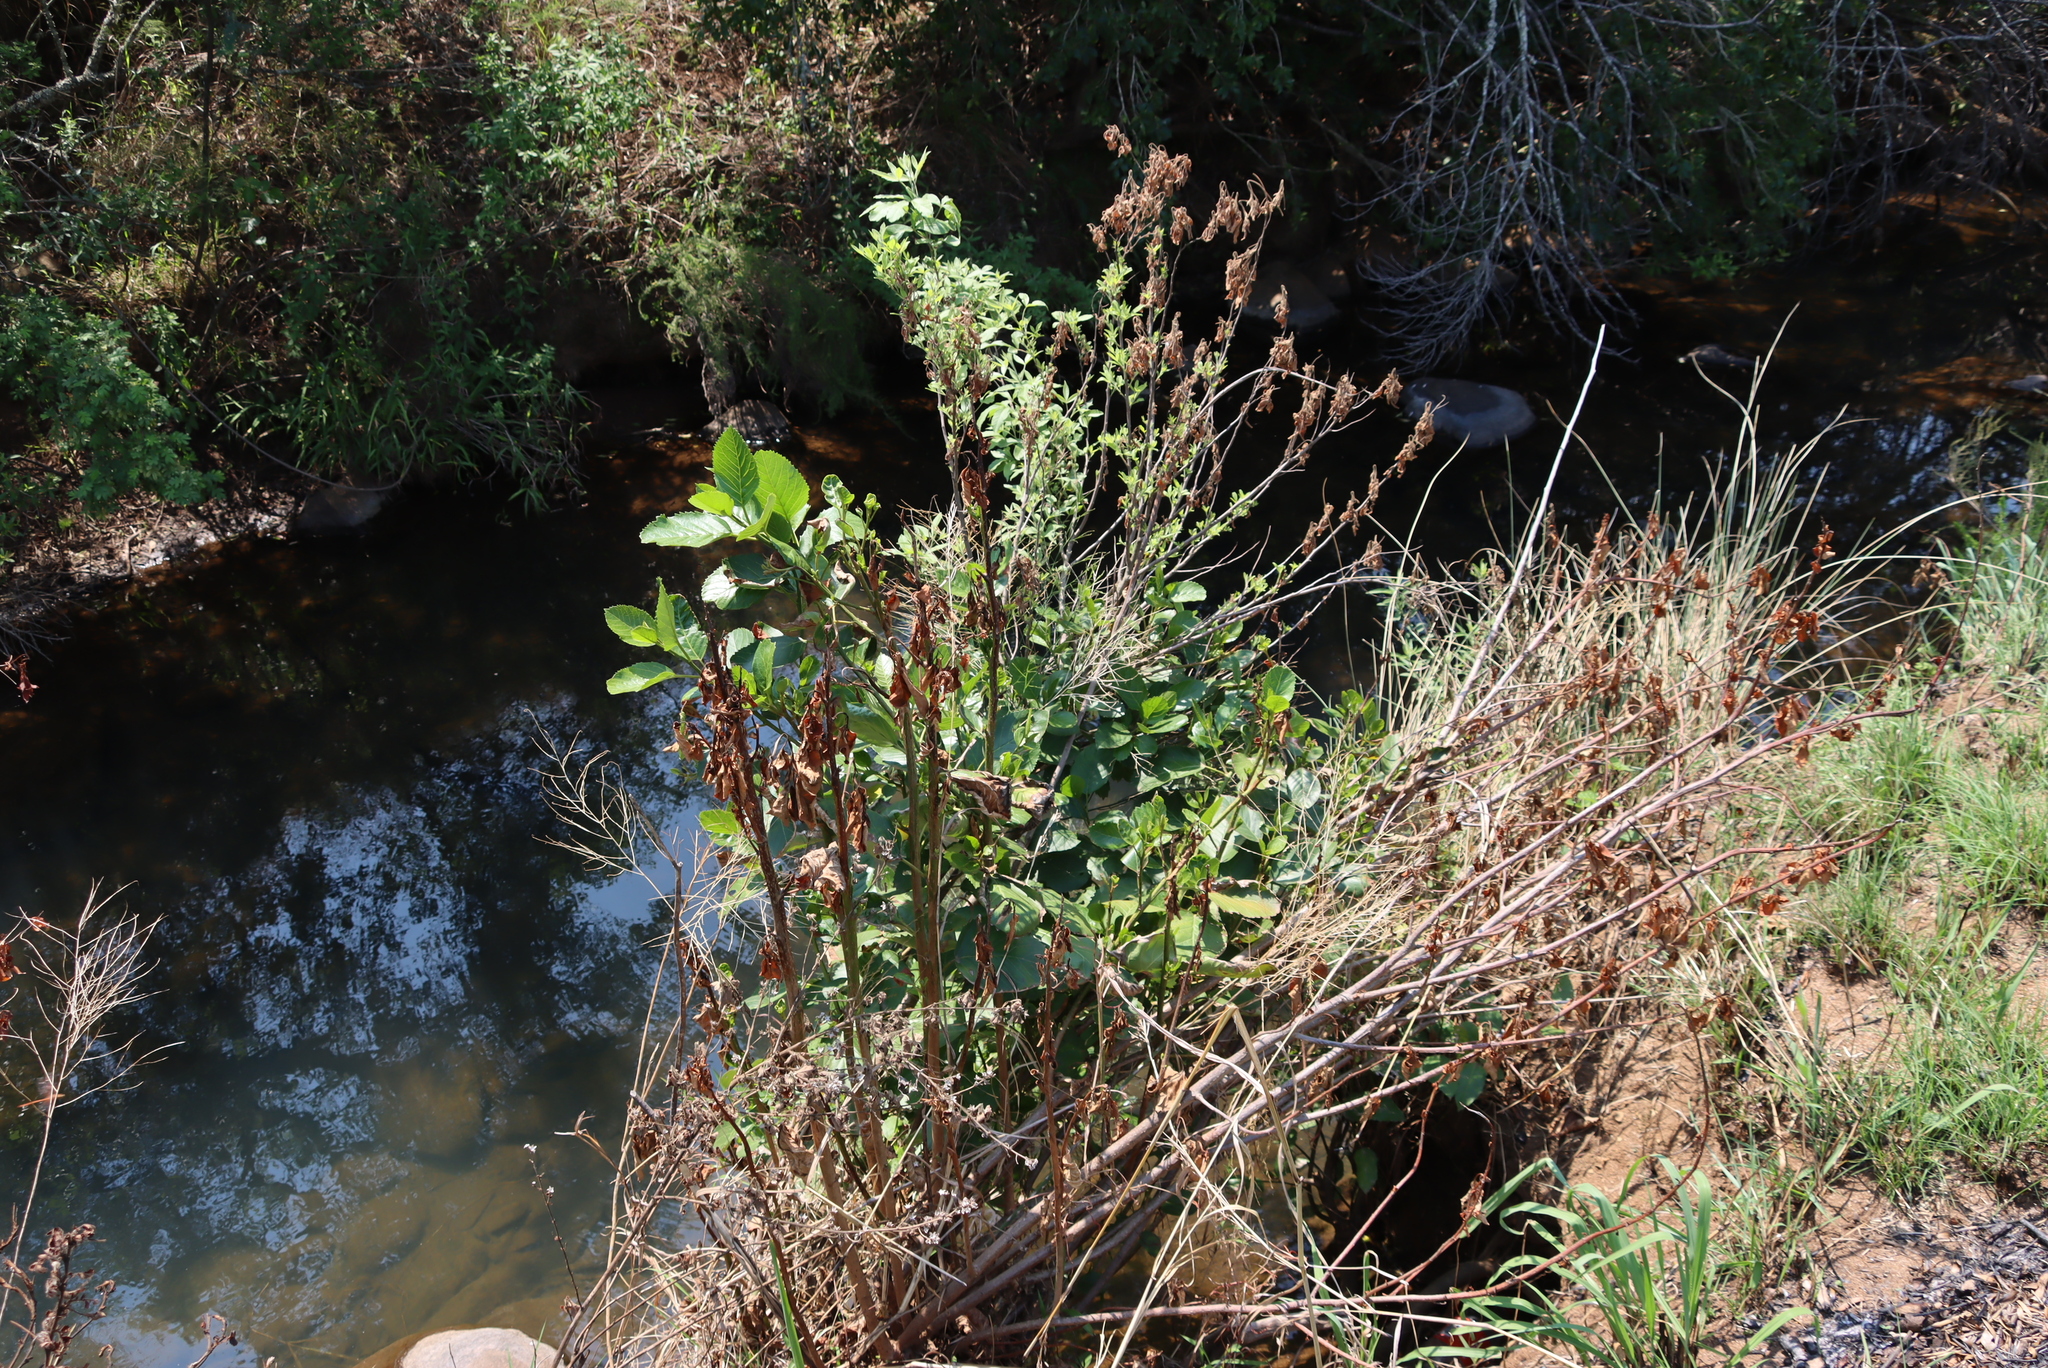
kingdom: Plantae
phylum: Tracheophyta
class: Magnoliopsida
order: Lamiales
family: Scrophulariaceae
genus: Phygelius
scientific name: Phygelius aequalis
